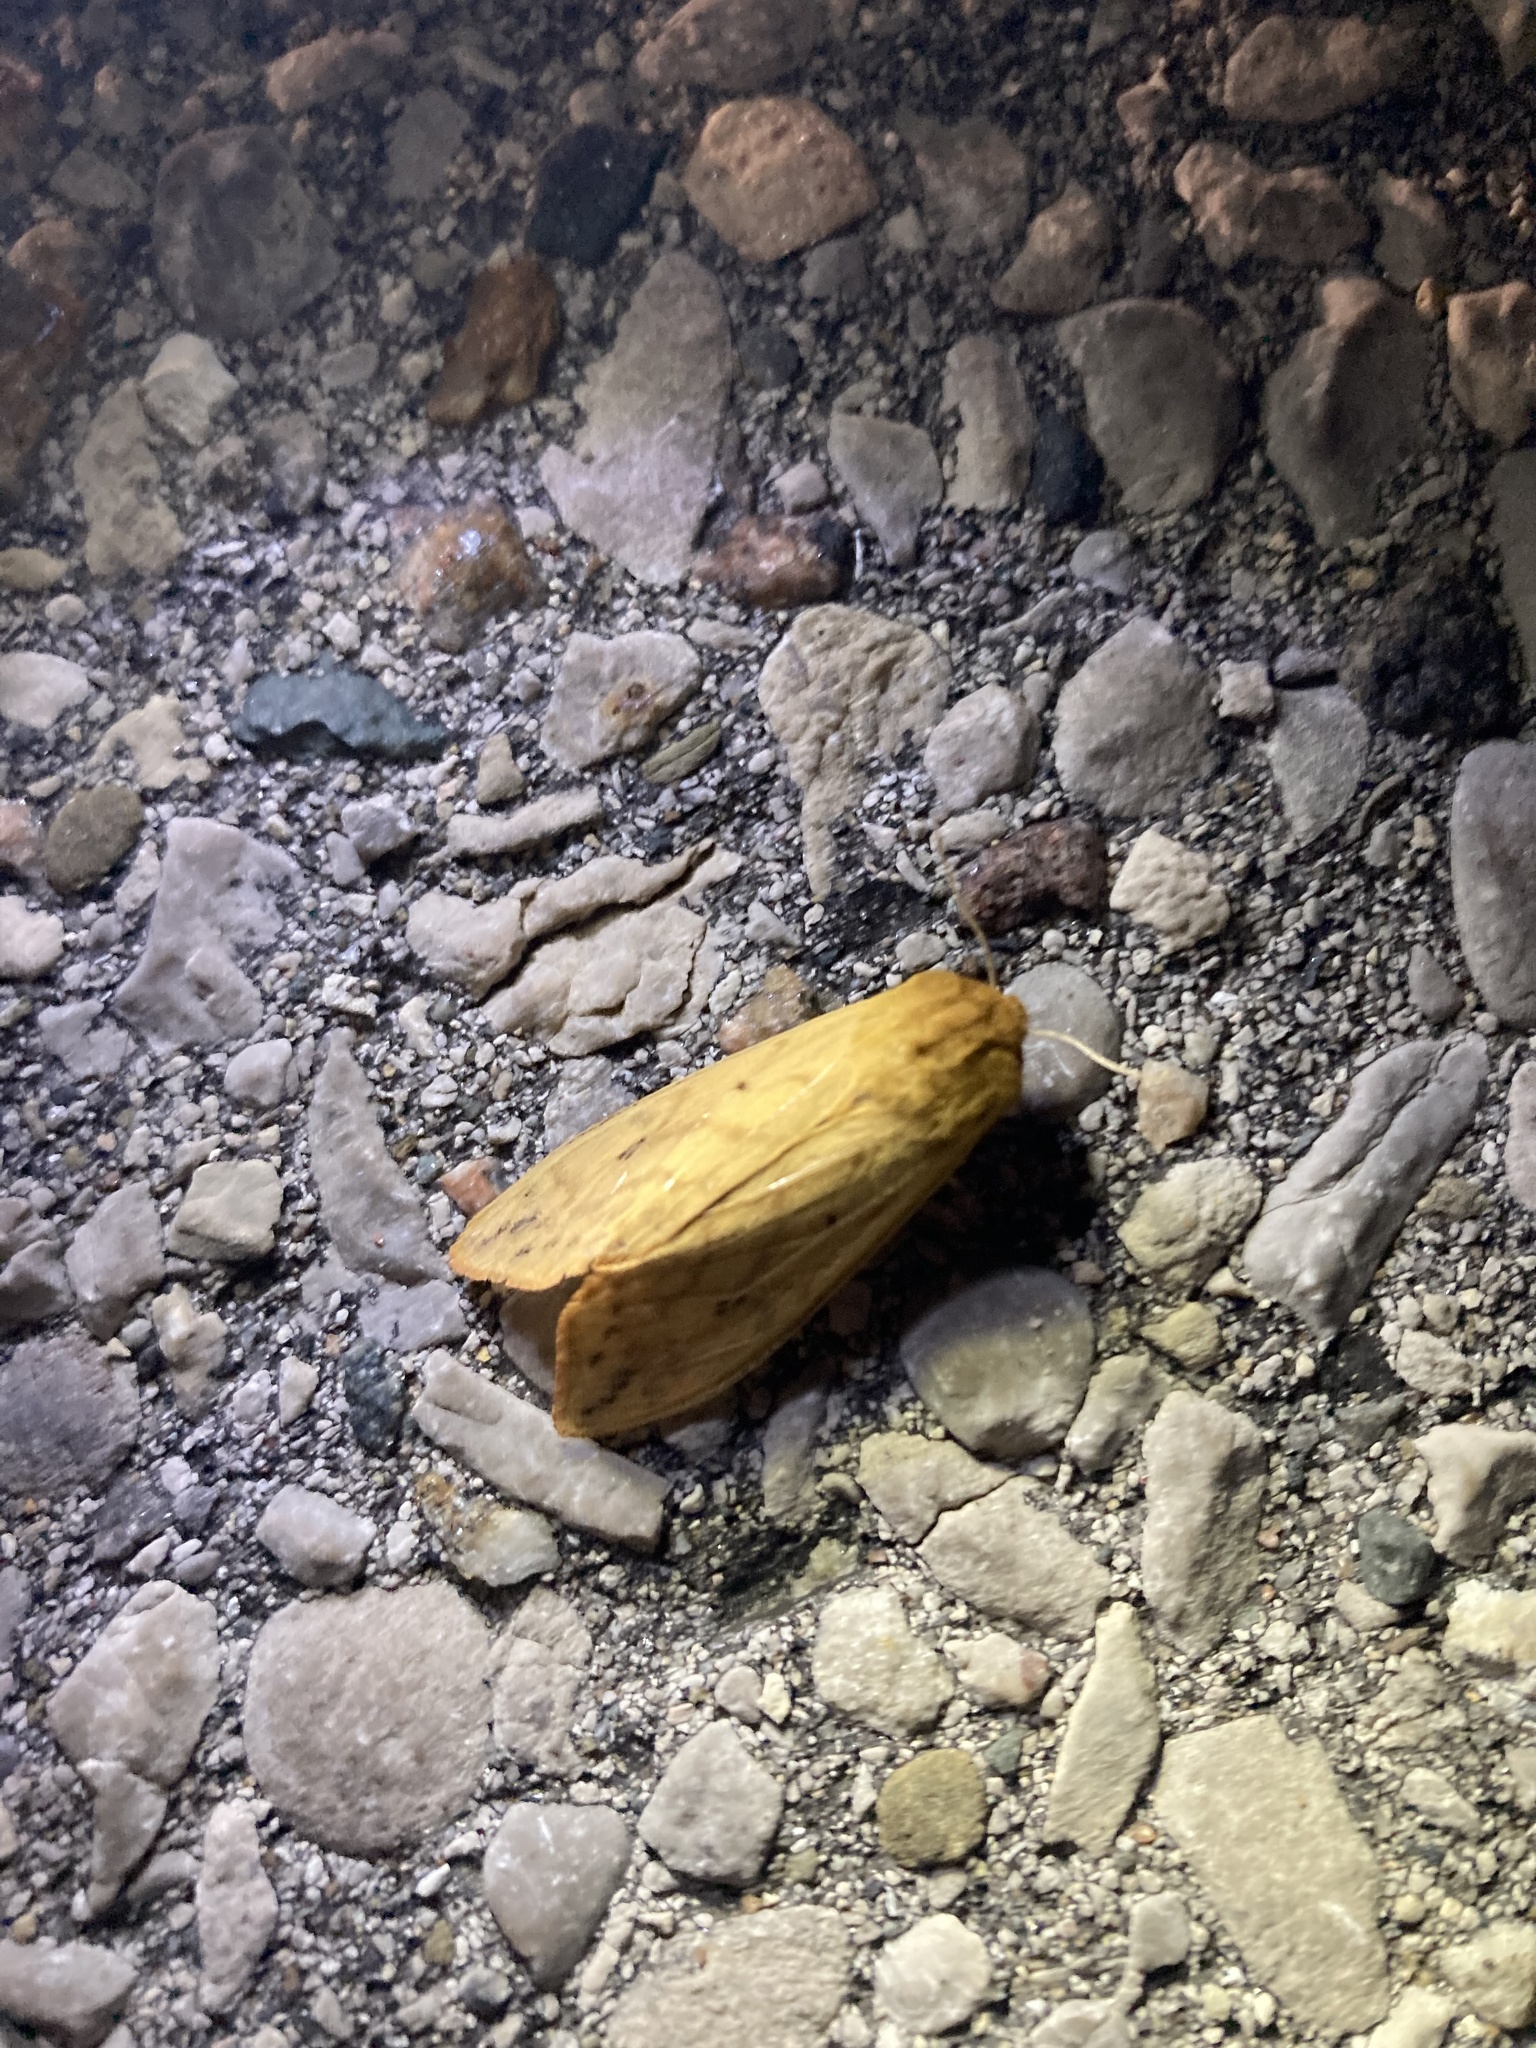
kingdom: Animalia
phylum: Arthropoda
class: Insecta
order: Lepidoptera
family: Erebidae
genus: Pyrrharctia
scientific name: Pyrrharctia isabella
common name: Isabella tiger moth
